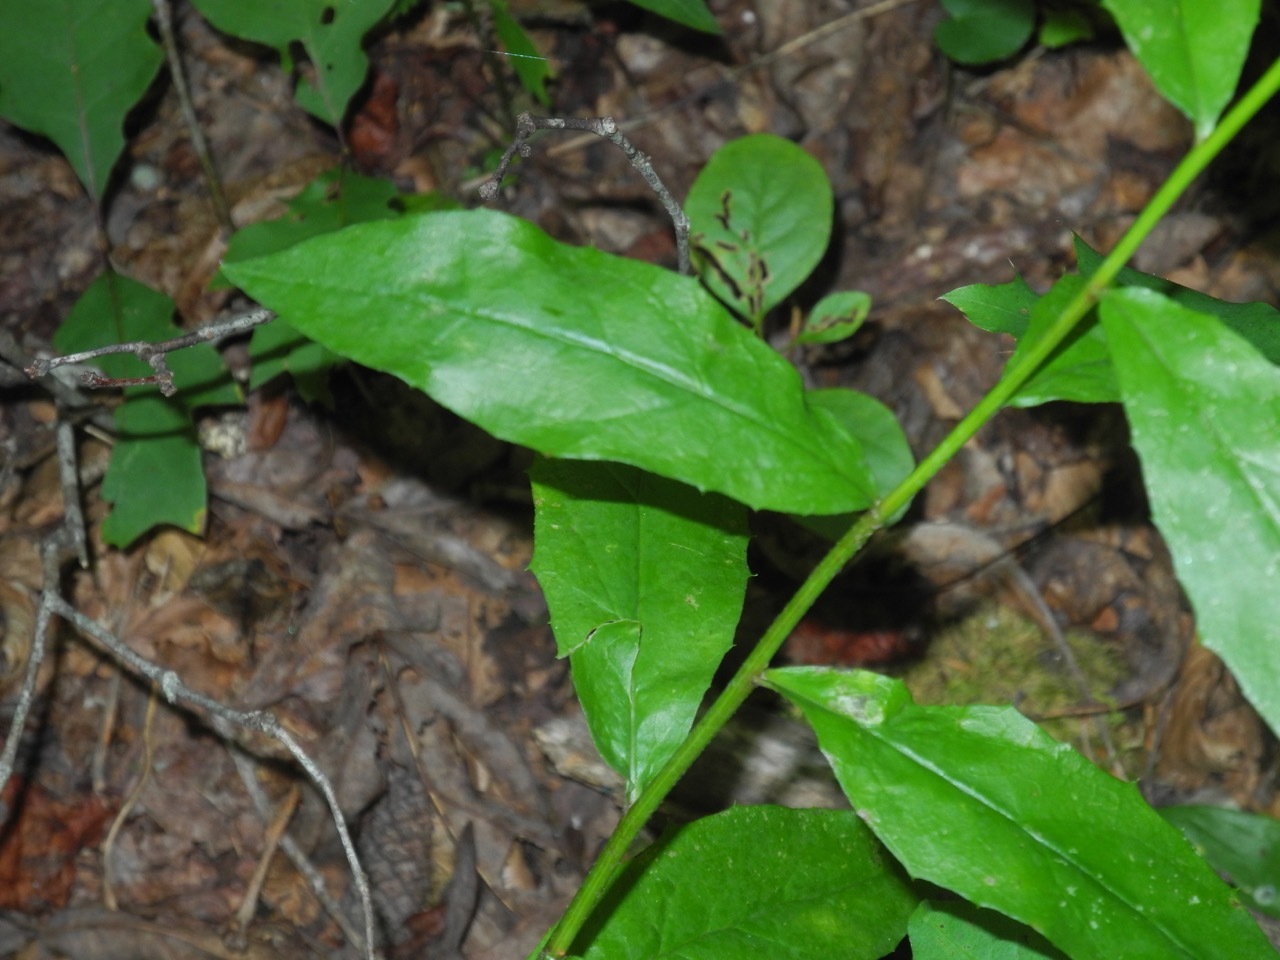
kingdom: Plantae
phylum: Tracheophyta
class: Magnoliopsida
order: Asterales
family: Asteraceae
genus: Hieracium
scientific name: Hieracium paniculatum
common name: Allegheny hawkweed
